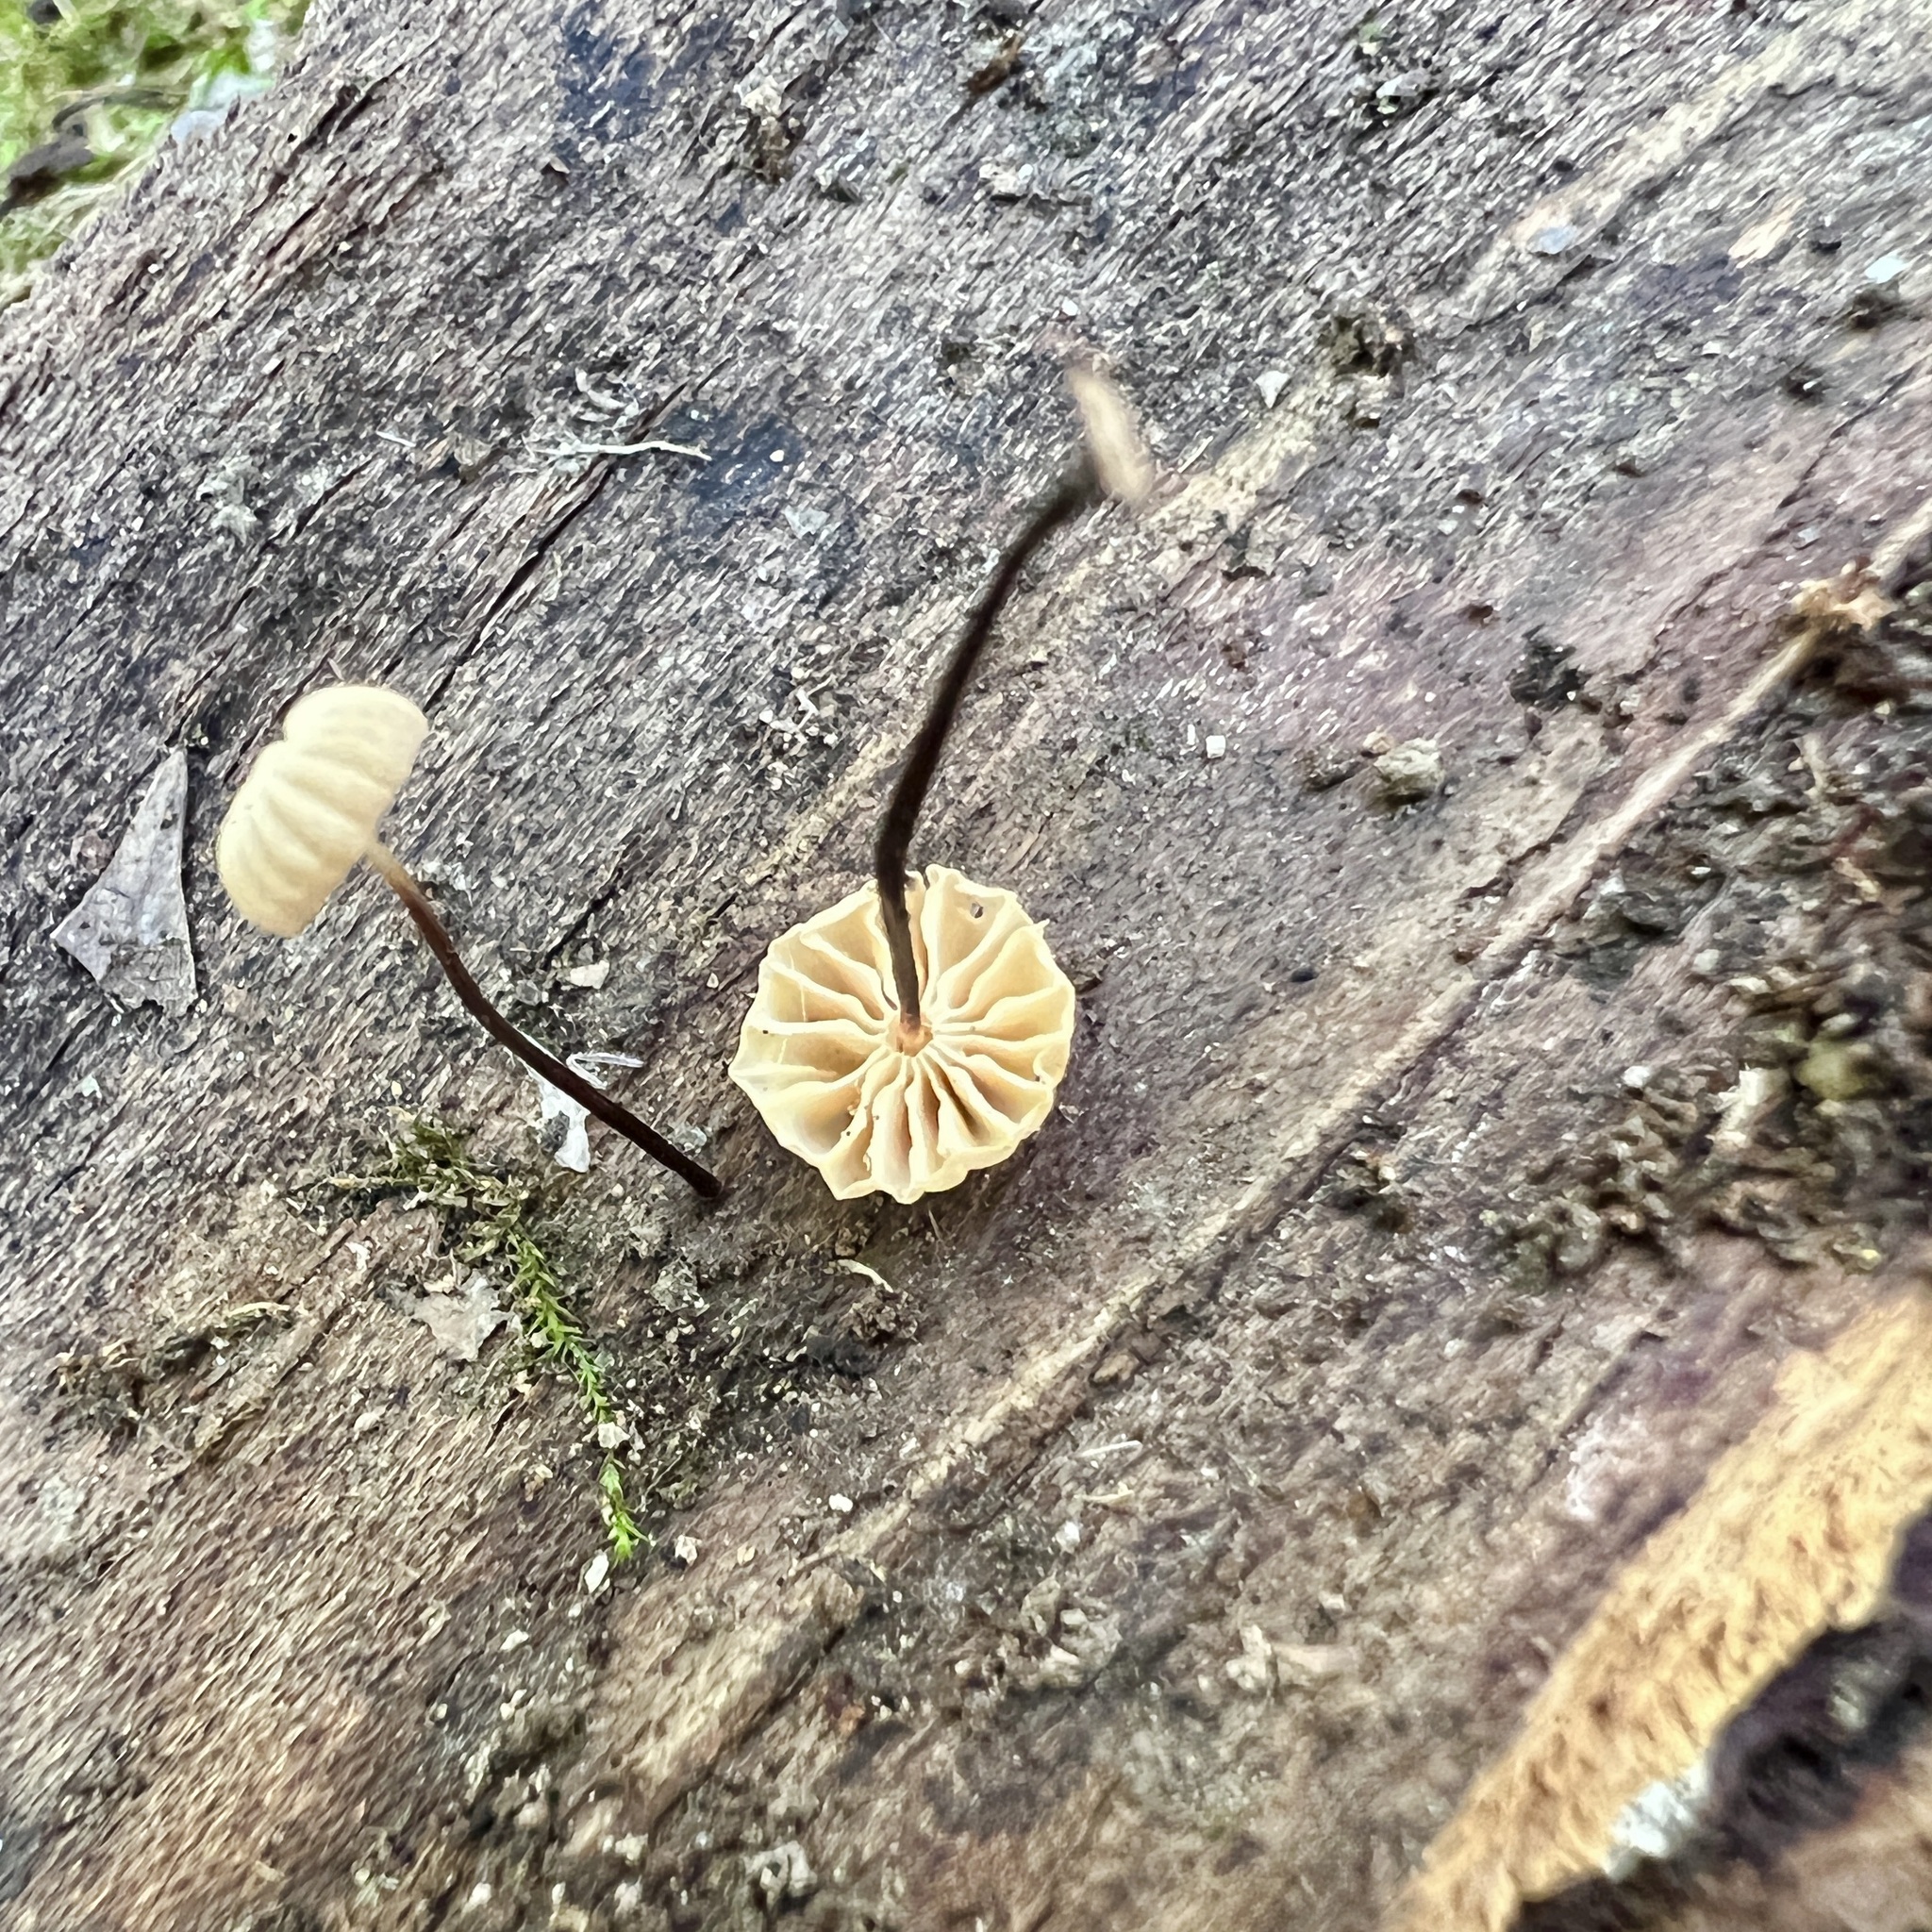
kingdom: Fungi
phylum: Basidiomycota
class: Agaricomycetes
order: Agaricales
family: Marasmiaceae
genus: Marasmius
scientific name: Marasmius rotula
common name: Collared parachute
